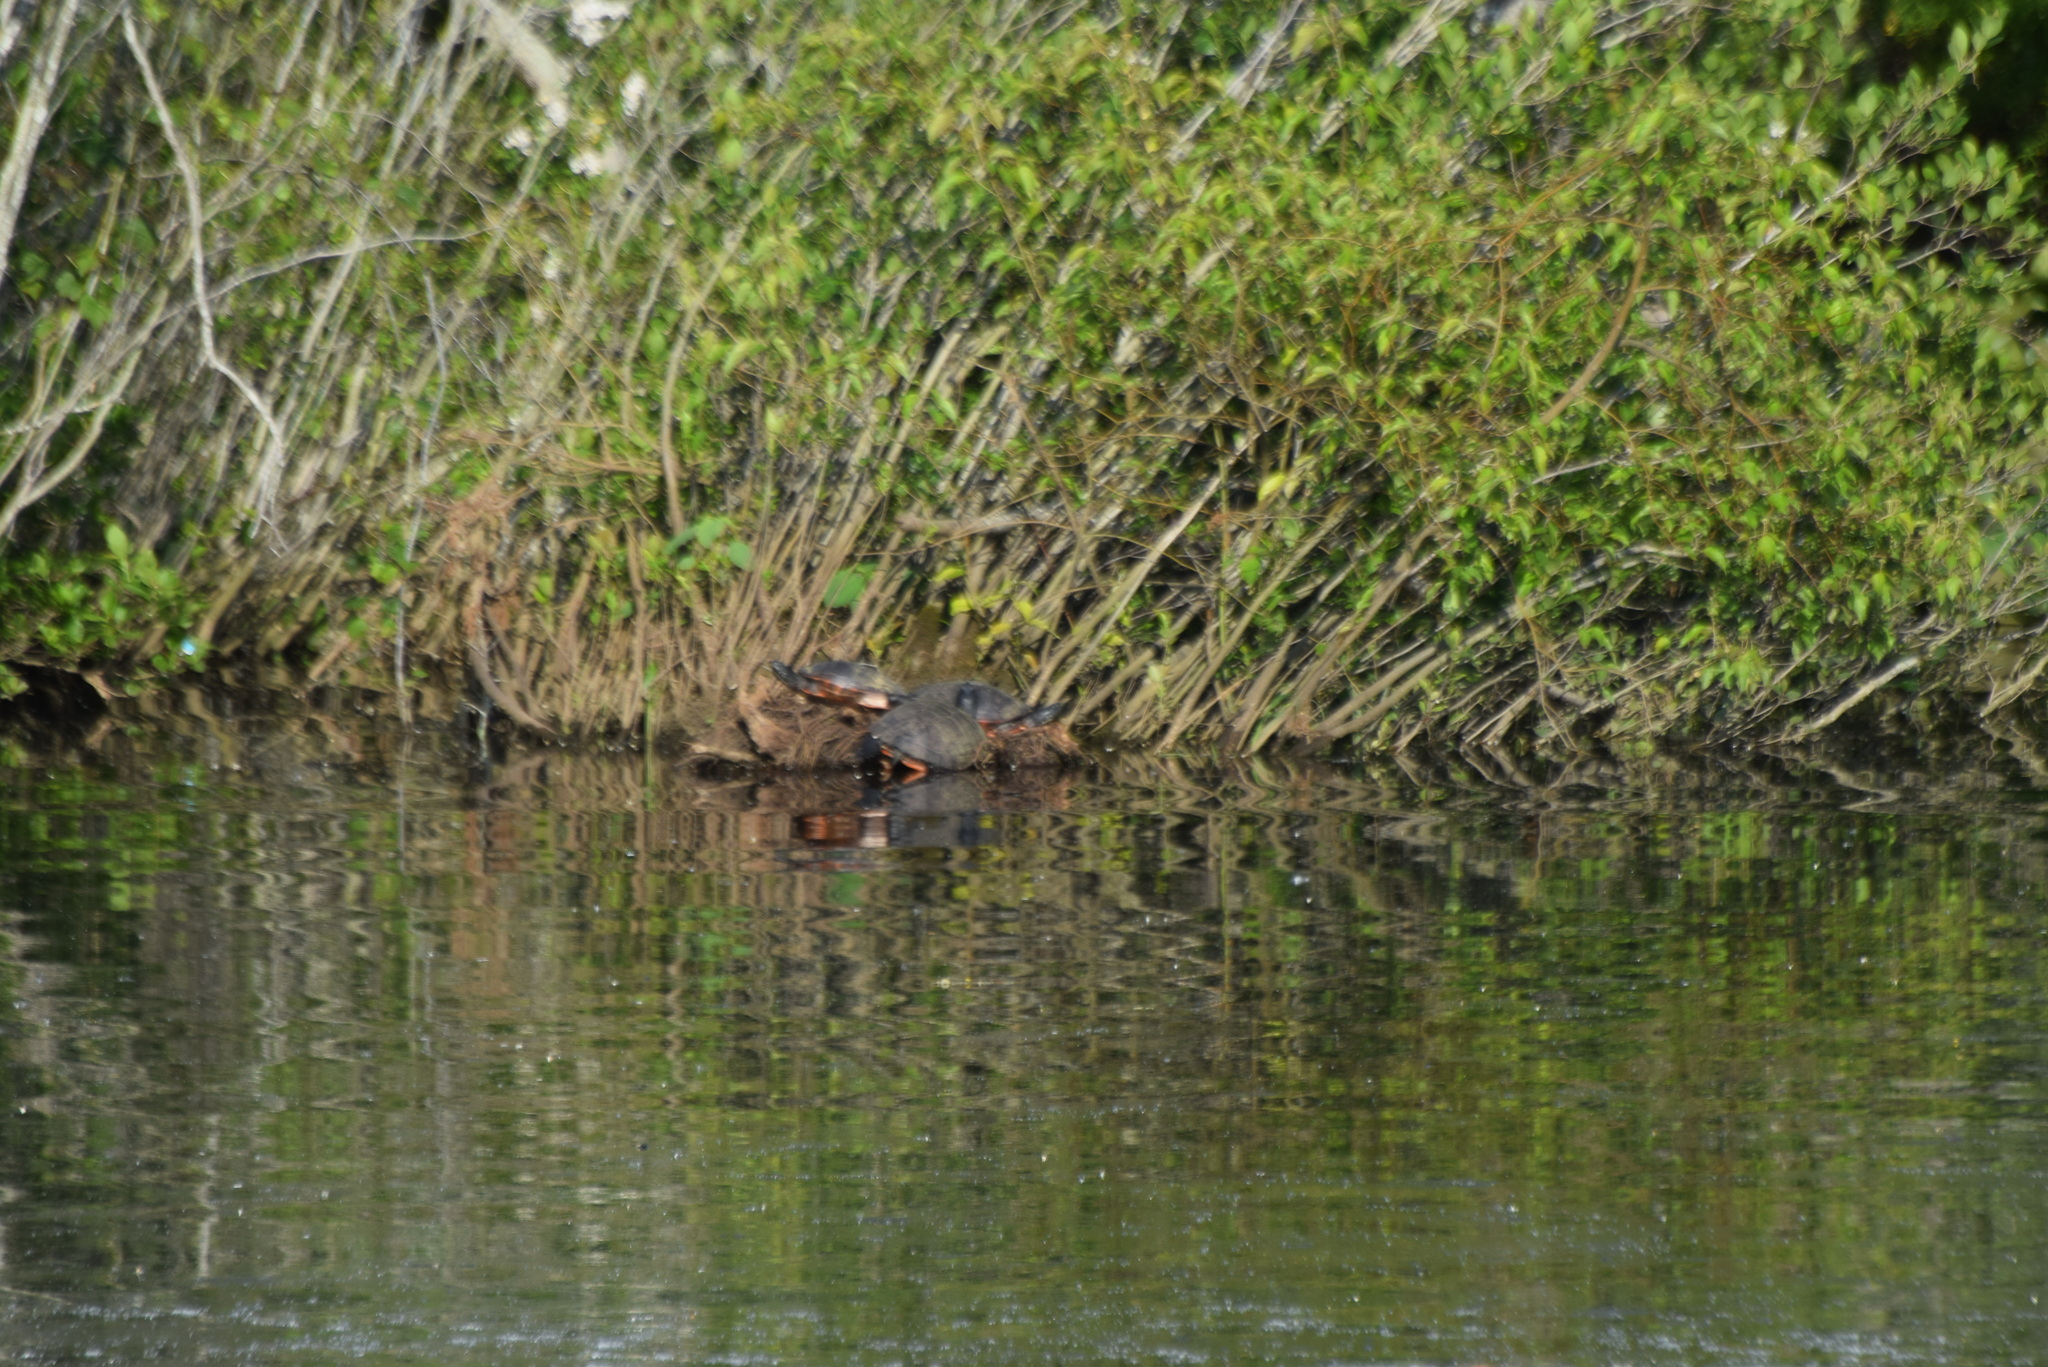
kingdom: Animalia
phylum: Chordata
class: Testudines
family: Emydidae
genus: Pseudemys
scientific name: Pseudemys rubriventris
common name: American red-bellied turtle
